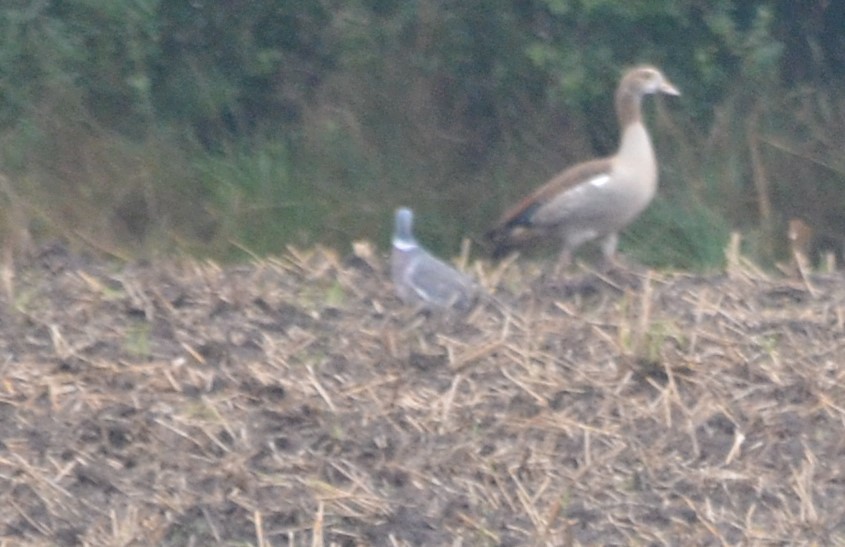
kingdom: Animalia
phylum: Chordata
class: Aves
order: Columbiformes
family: Columbidae
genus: Columba
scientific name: Columba palumbus
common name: Common wood pigeon
